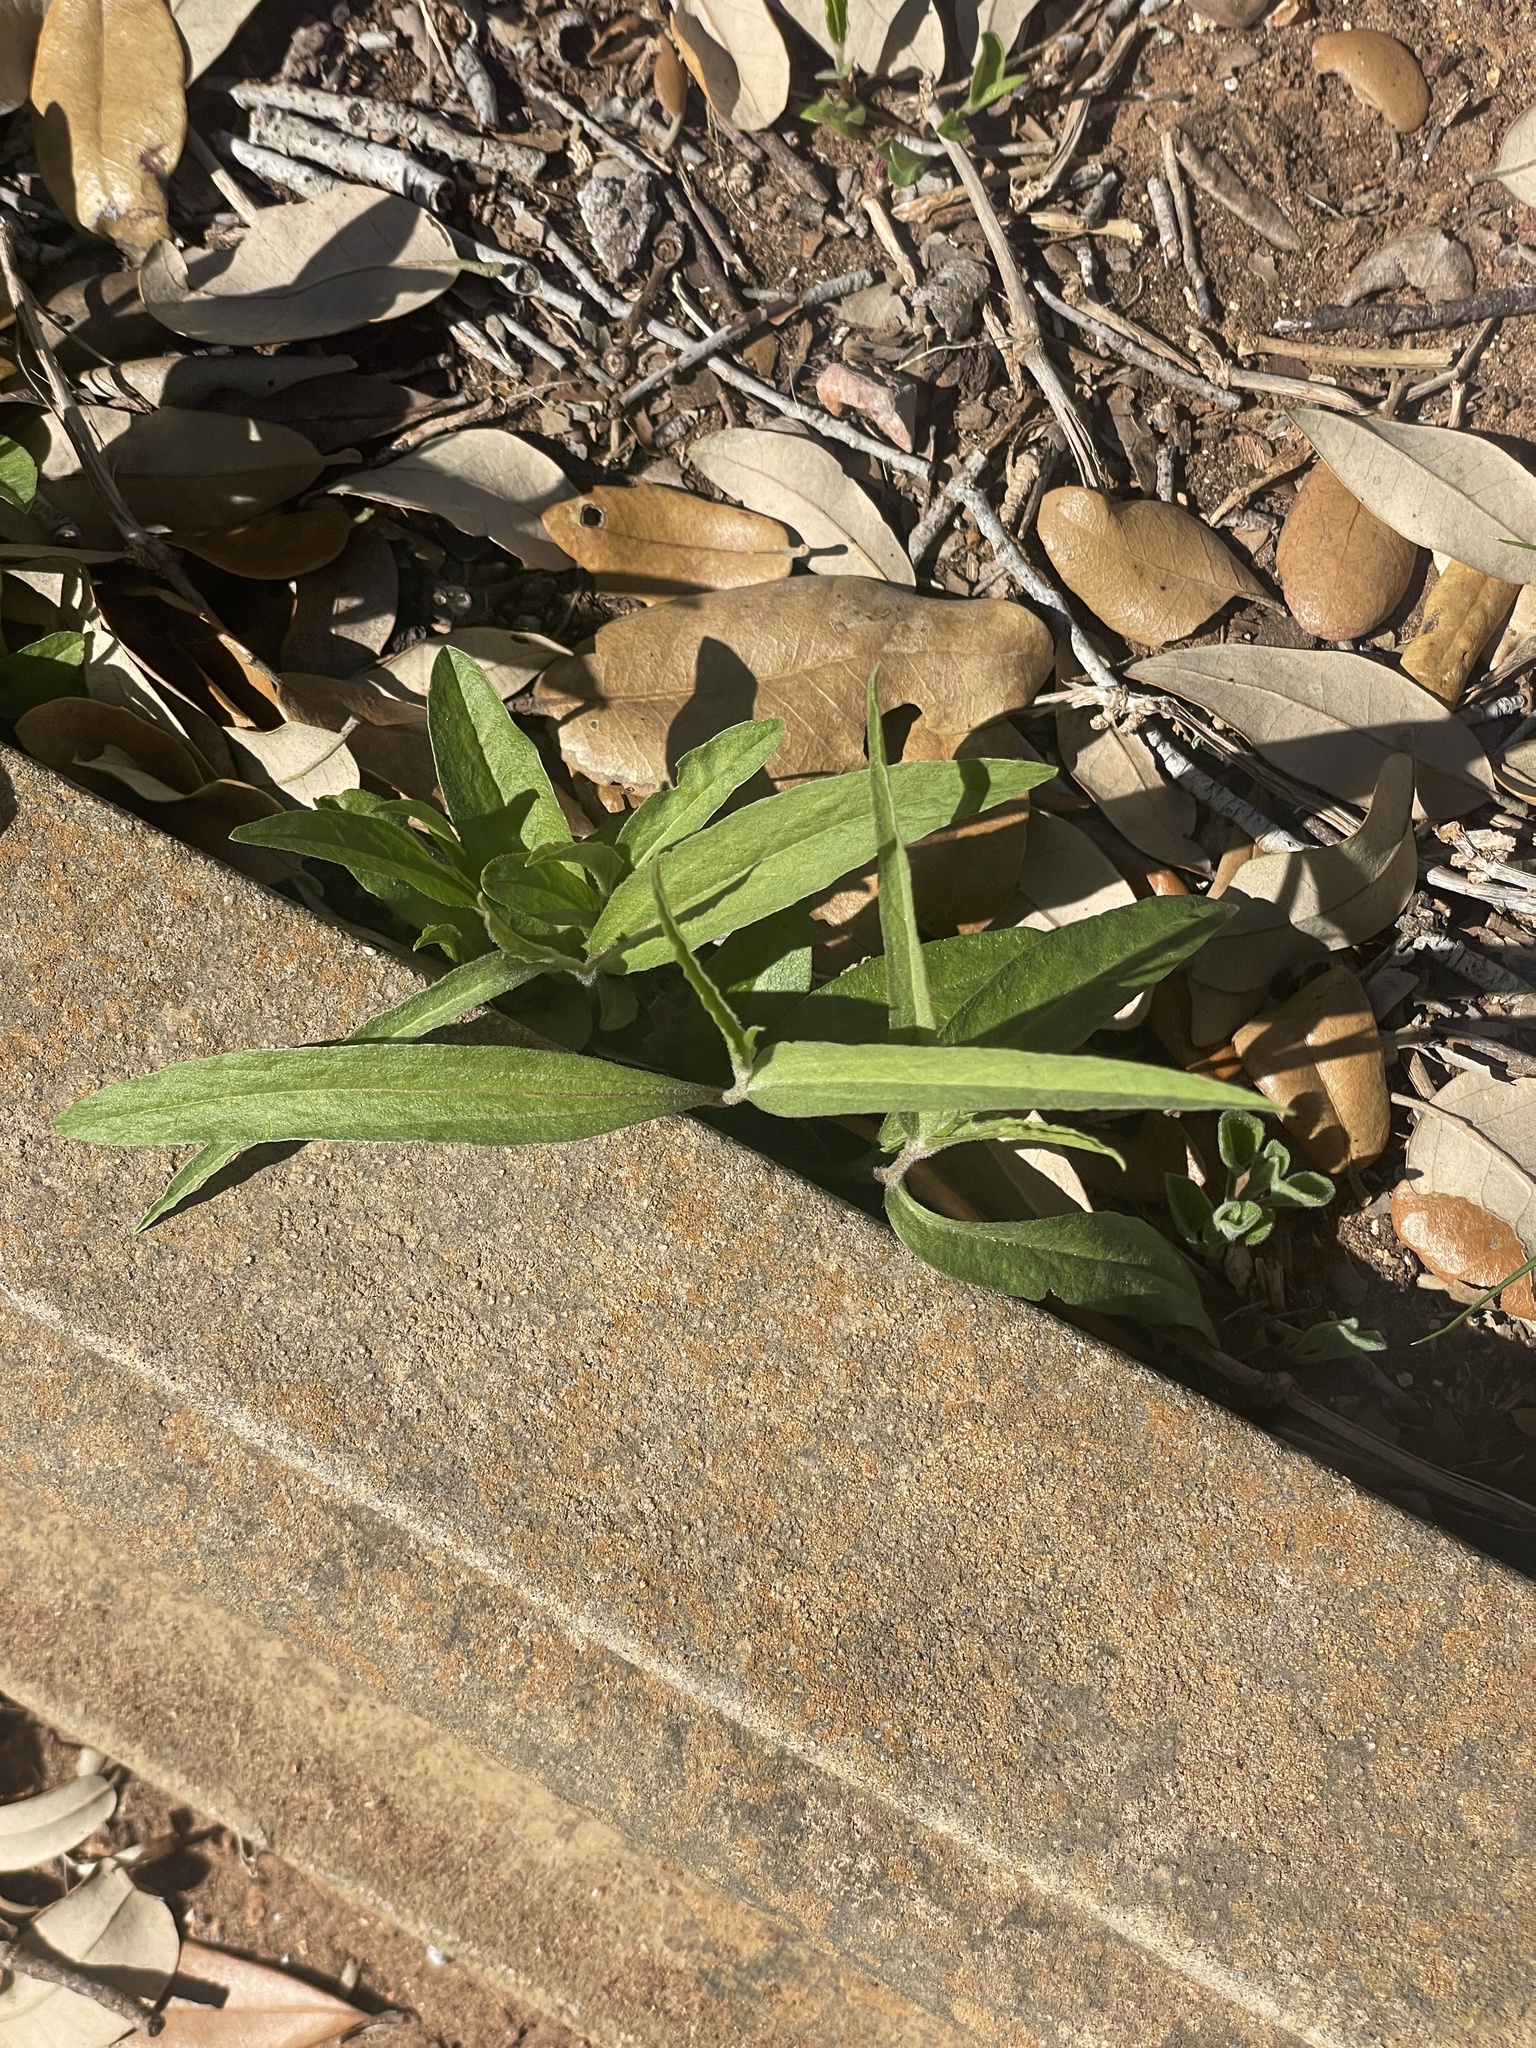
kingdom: Plantae
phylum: Tracheophyta
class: Magnoliopsida
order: Piperales
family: Aristolochiaceae
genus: Aristolochia
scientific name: Aristolochia erecta
